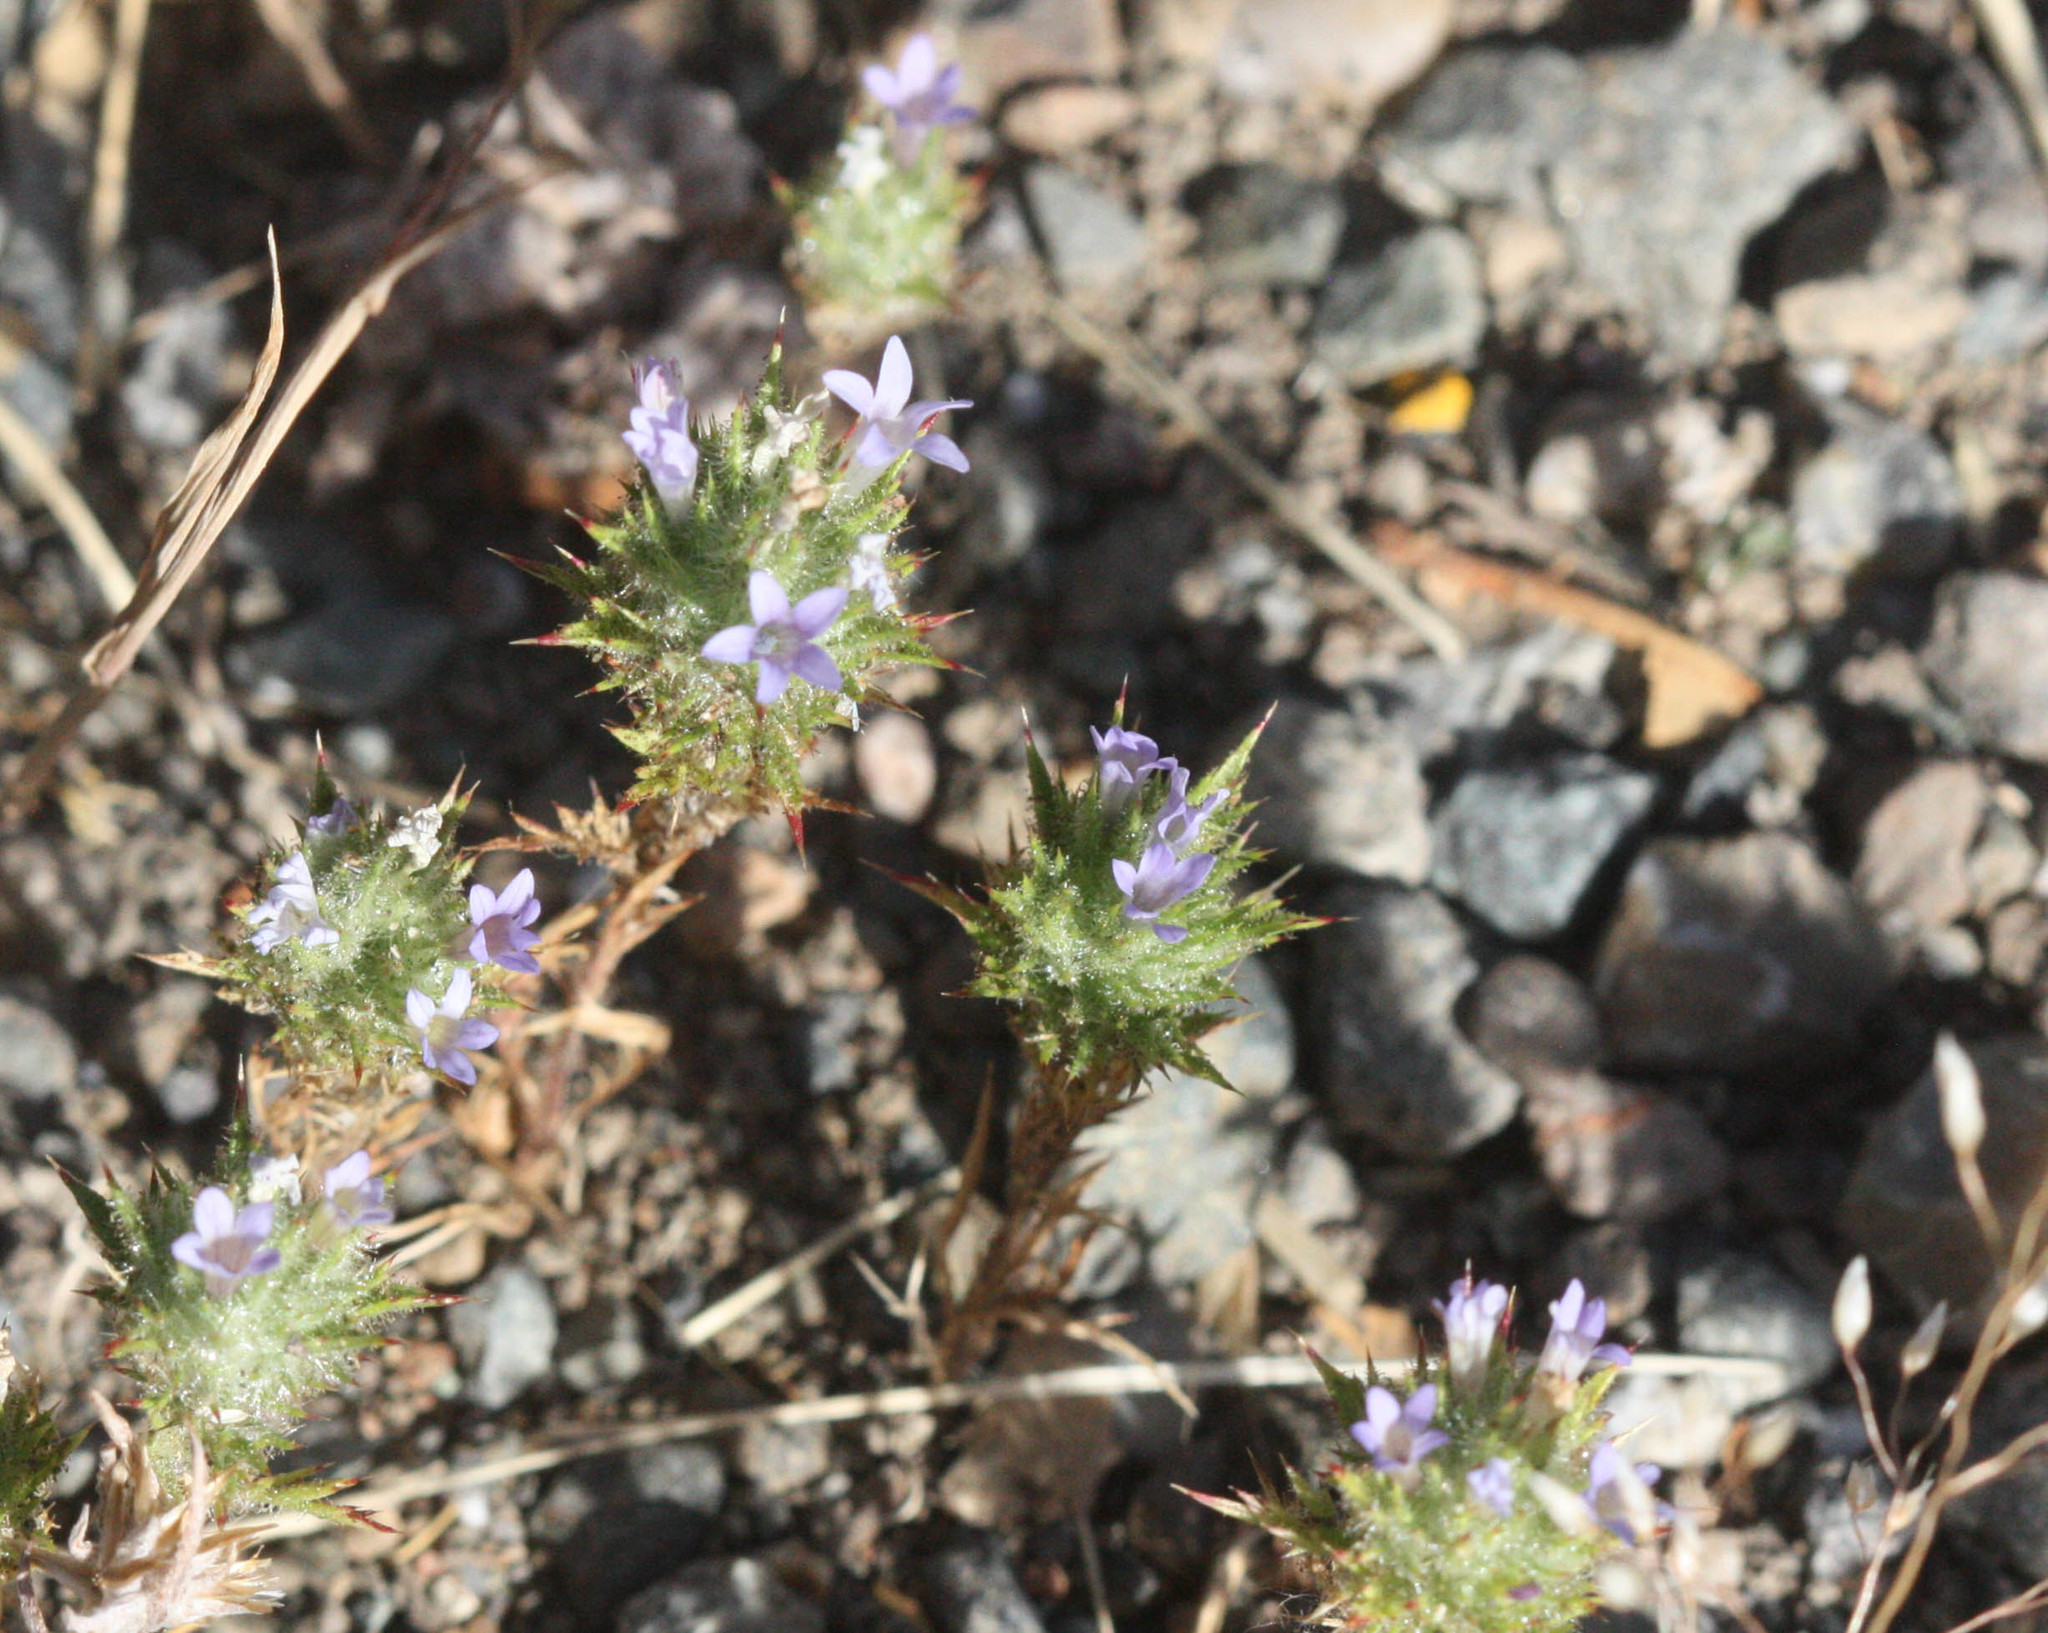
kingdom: Plantae
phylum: Tracheophyta
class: Magnoliopsida
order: Ericales
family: Polemoniaceae
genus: Navarretia
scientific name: Navarretia squarrosa
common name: Skunkweed
